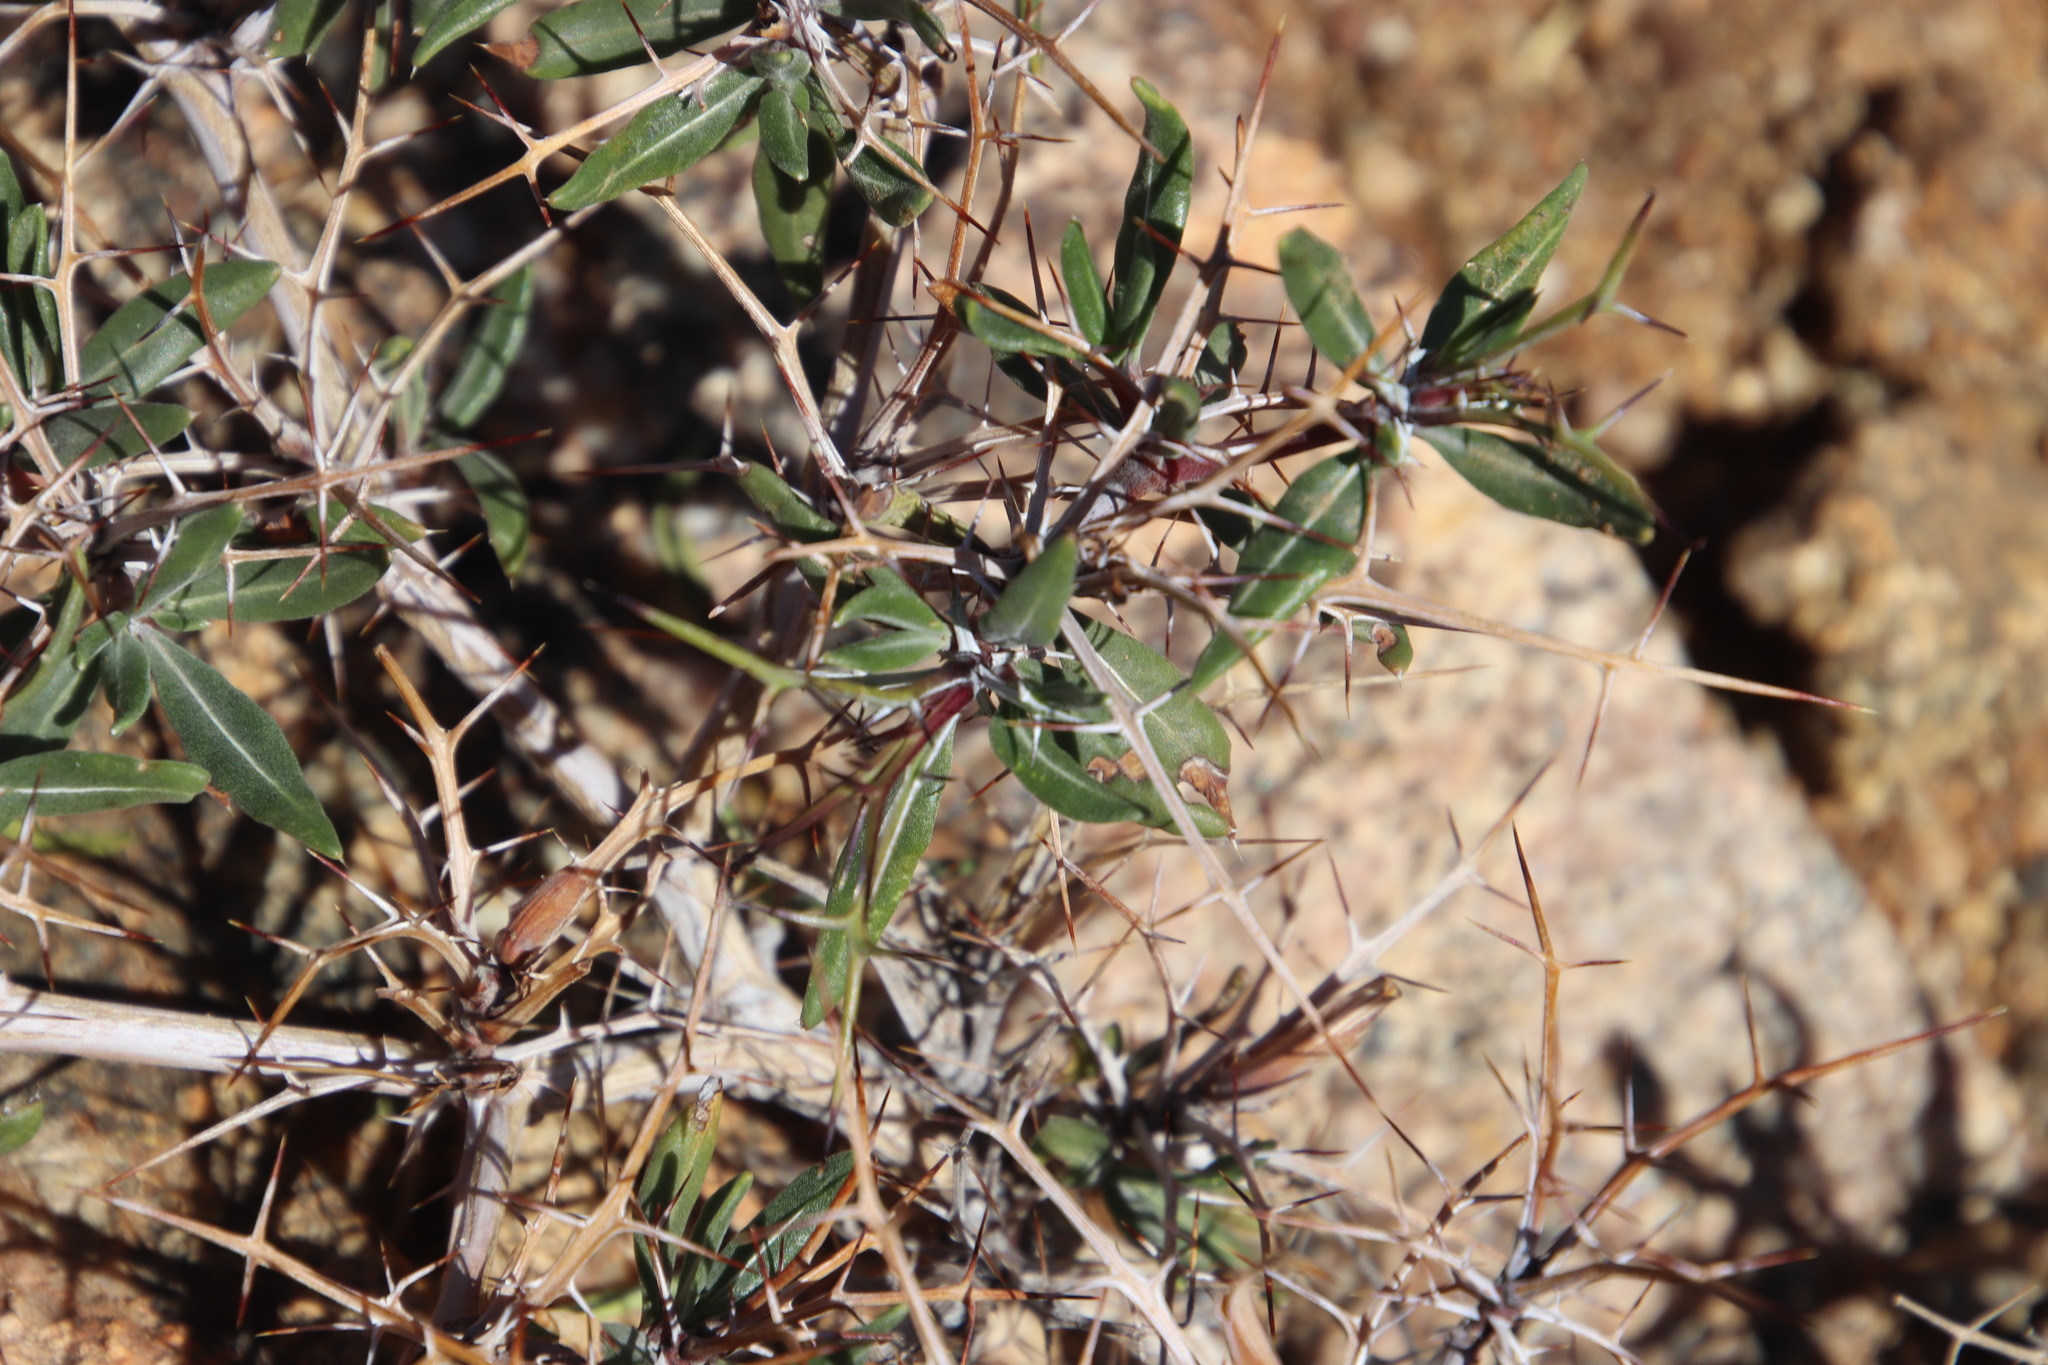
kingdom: Plantae
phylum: Tracheophyta
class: Magnoliopsida
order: Lamiales
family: Acanthaceae
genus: Blepharis
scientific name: Blepharis macra
